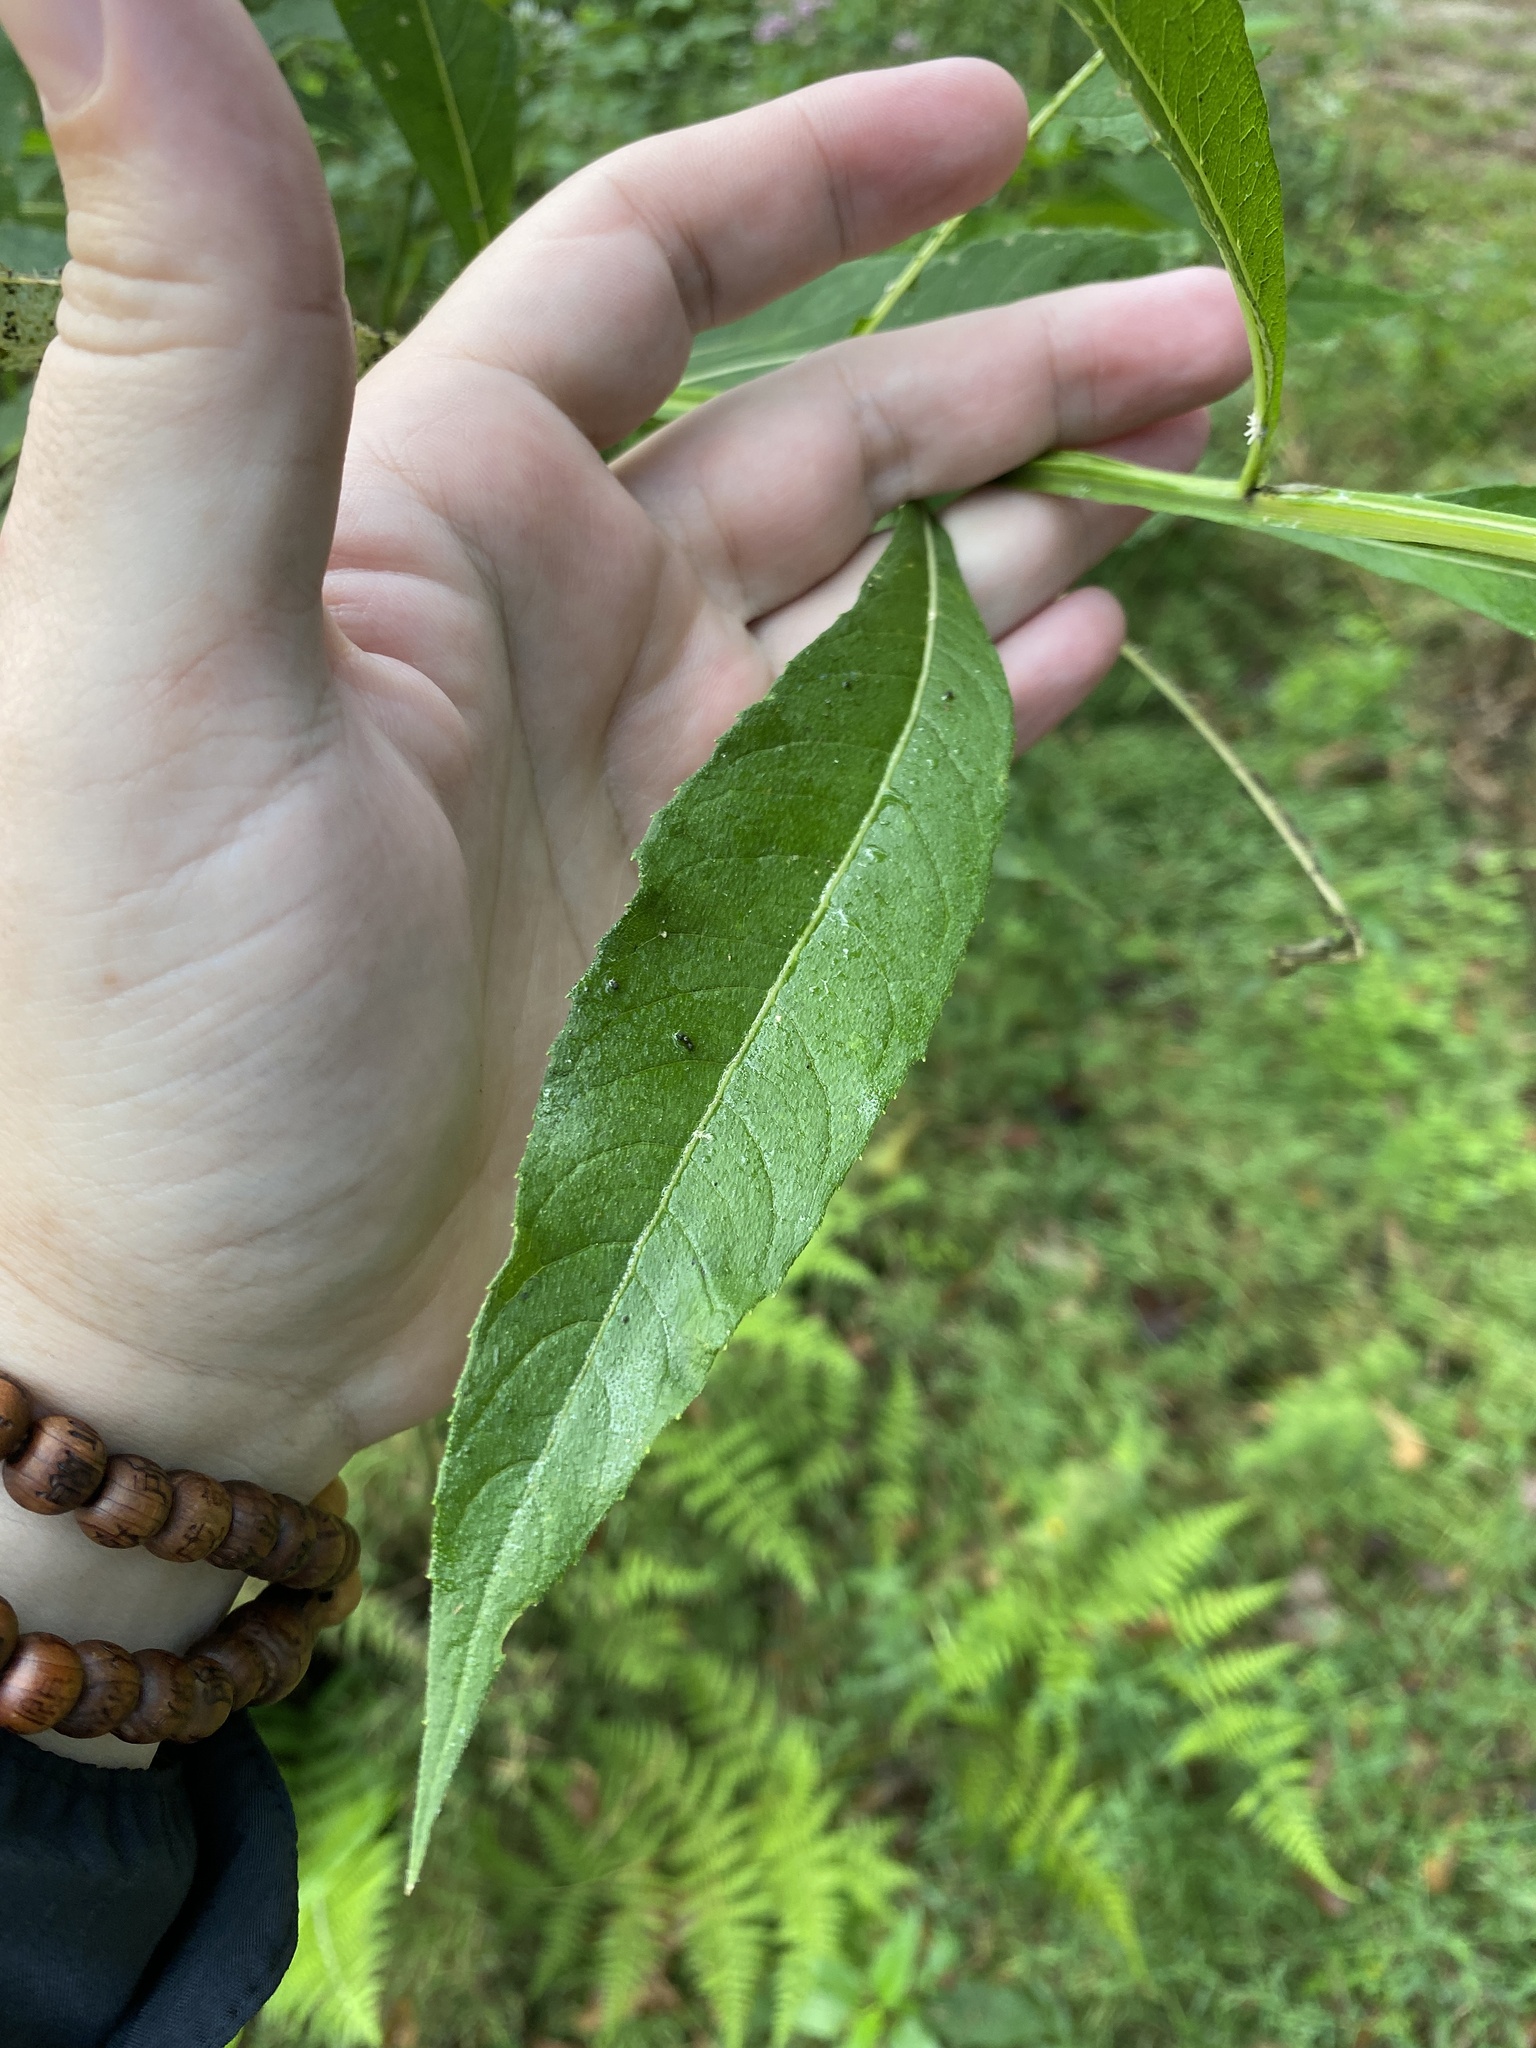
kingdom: Plantae
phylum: Tracheophyta
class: Magnoliopsida
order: Asterales
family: Asteraceae
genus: Verbesina
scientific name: Verbesina walteri
